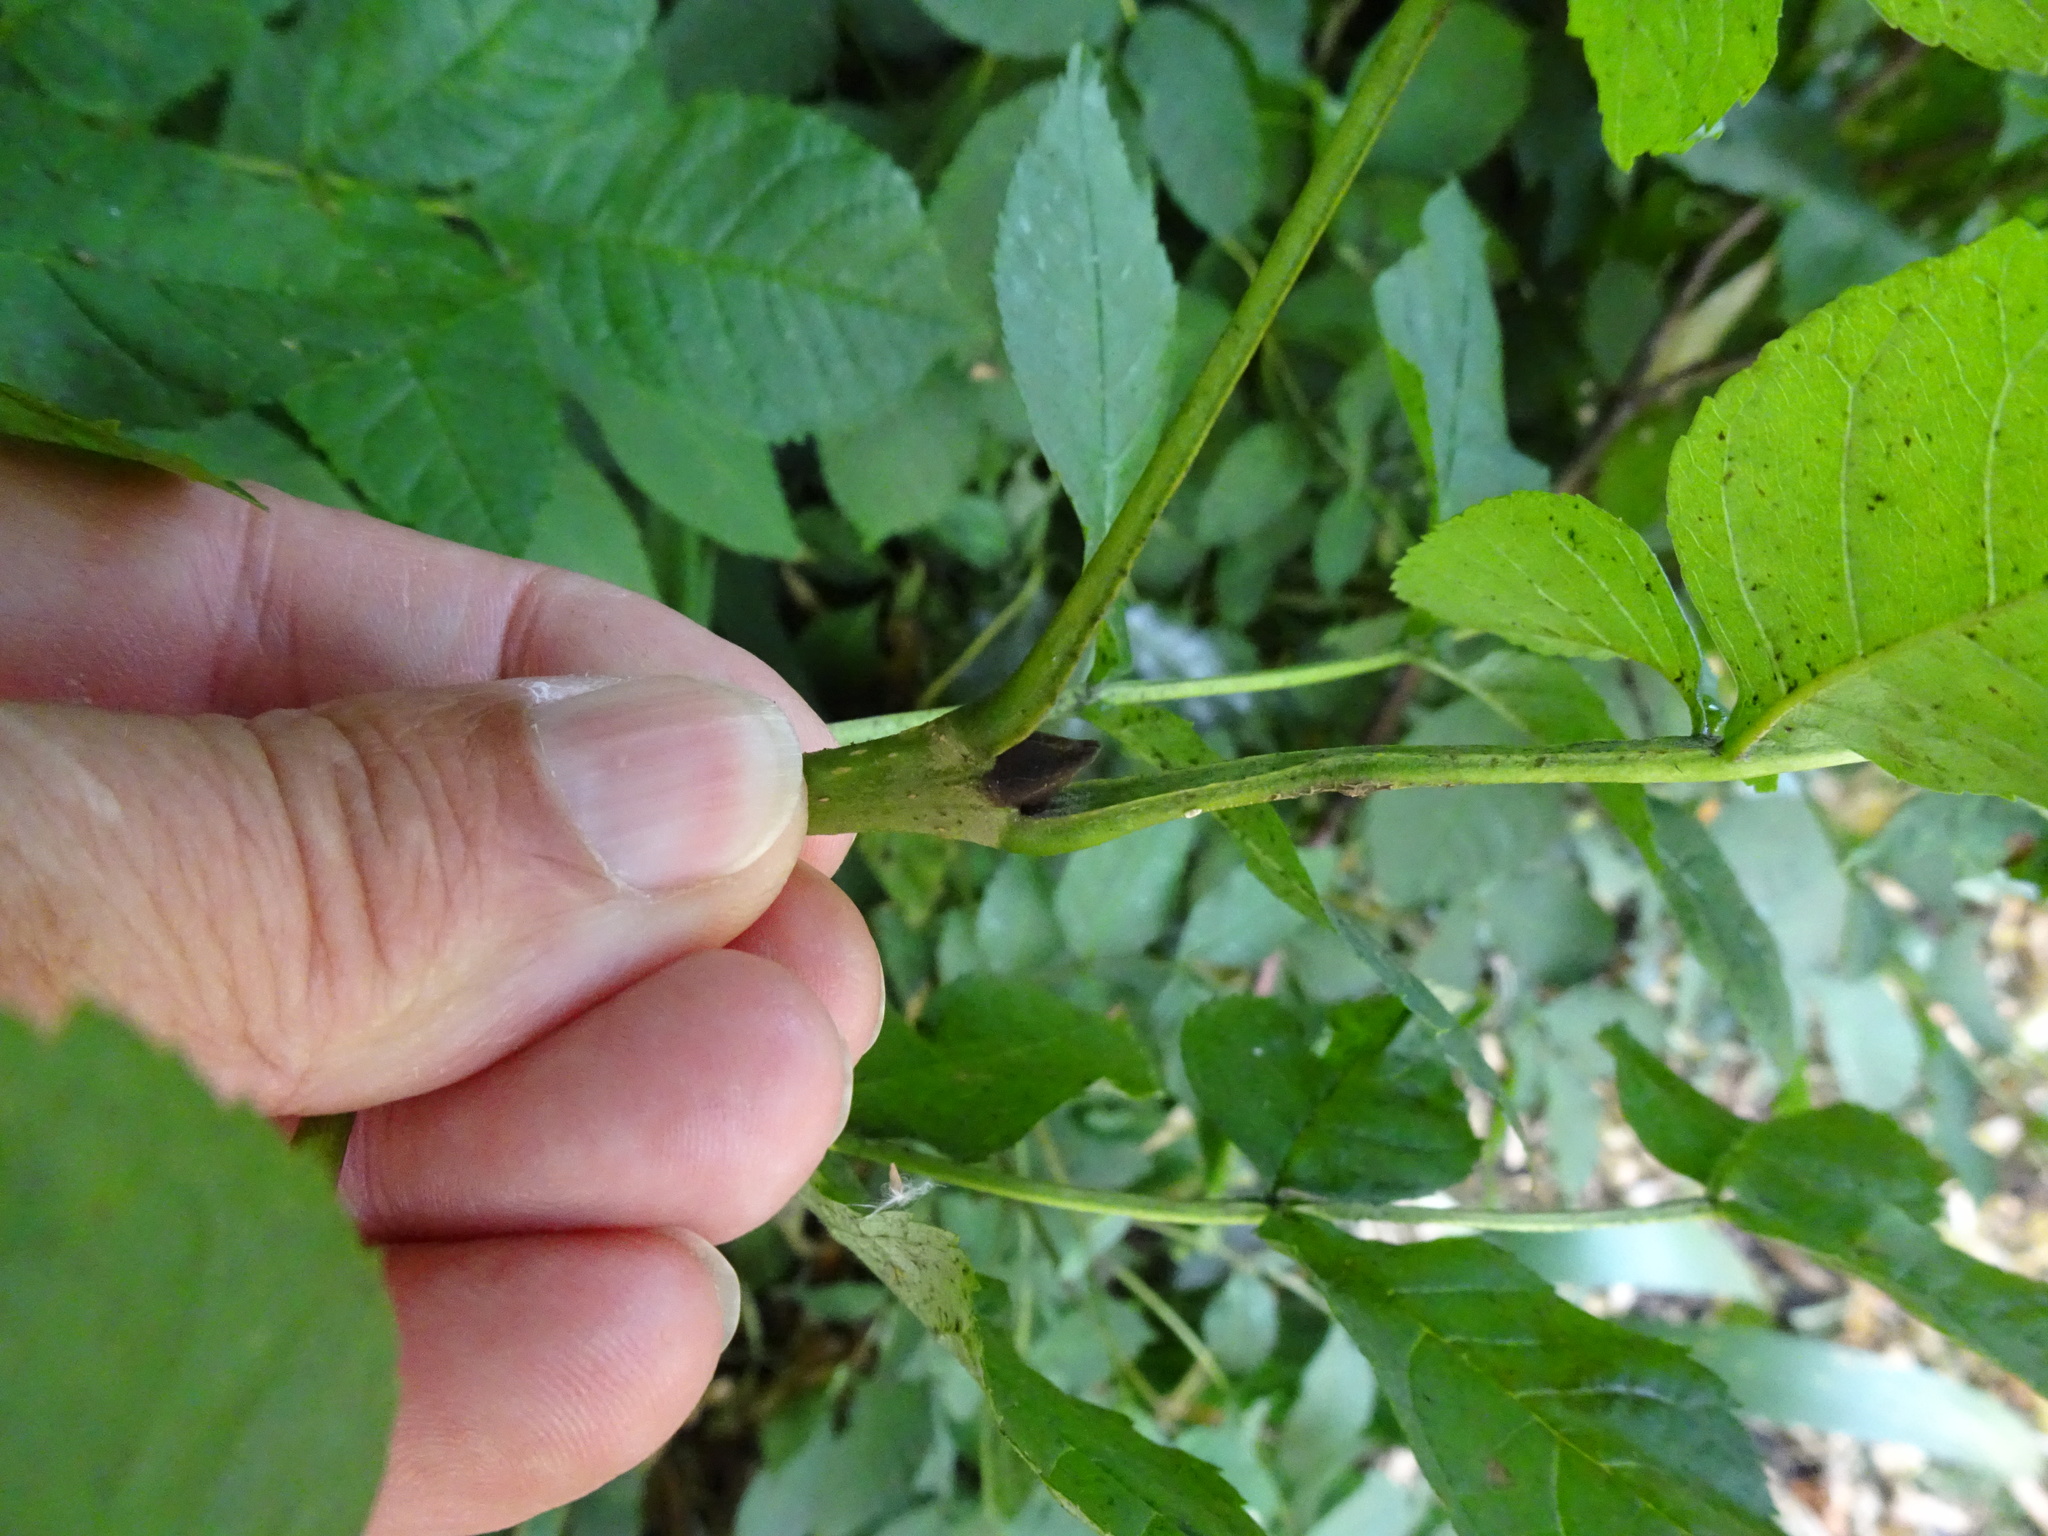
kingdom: Plantae
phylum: Tracheophyta
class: Magnoliopsida
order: Lamiales
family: Oleaceae
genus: Fraxinus
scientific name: Fraxinus excelsior
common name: European ash
